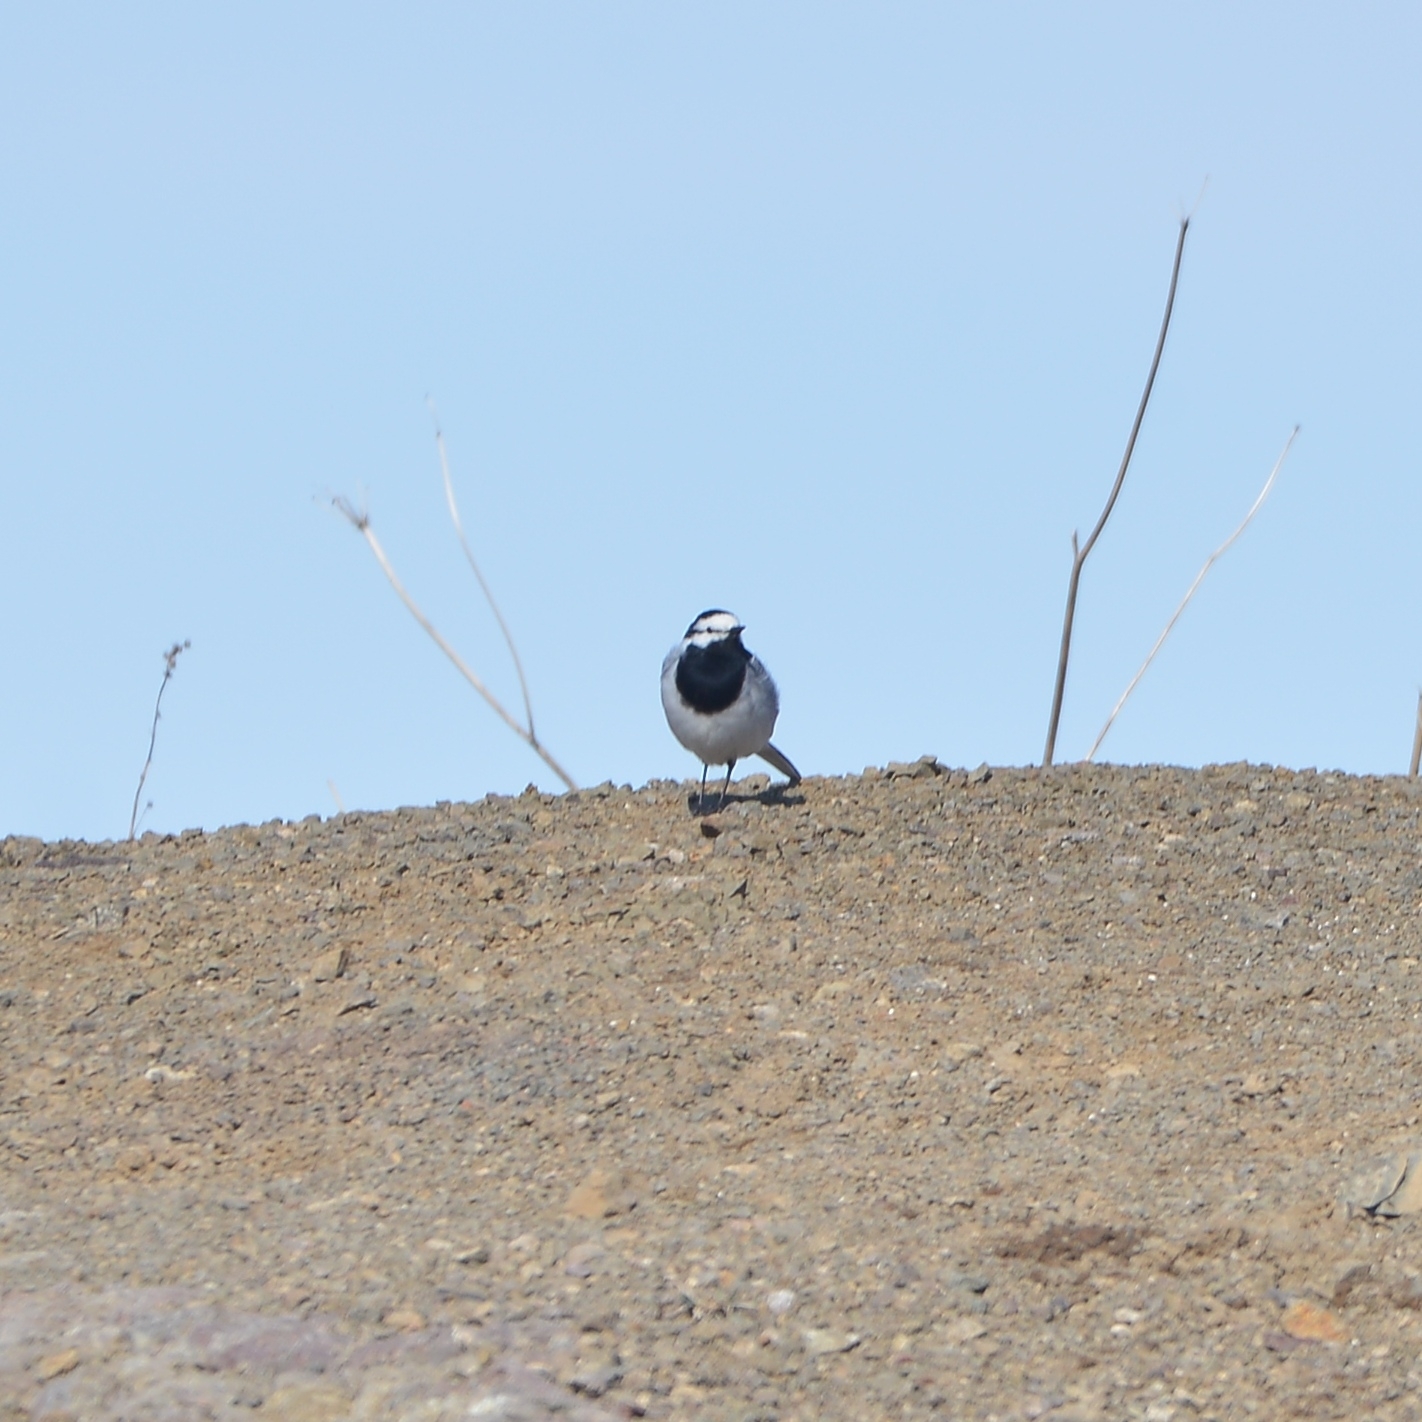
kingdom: Animalia
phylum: Chordata
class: Aves
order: Passeriformes
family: Motacillidae
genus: Motacilla
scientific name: Motacilla alba
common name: White wagtail
